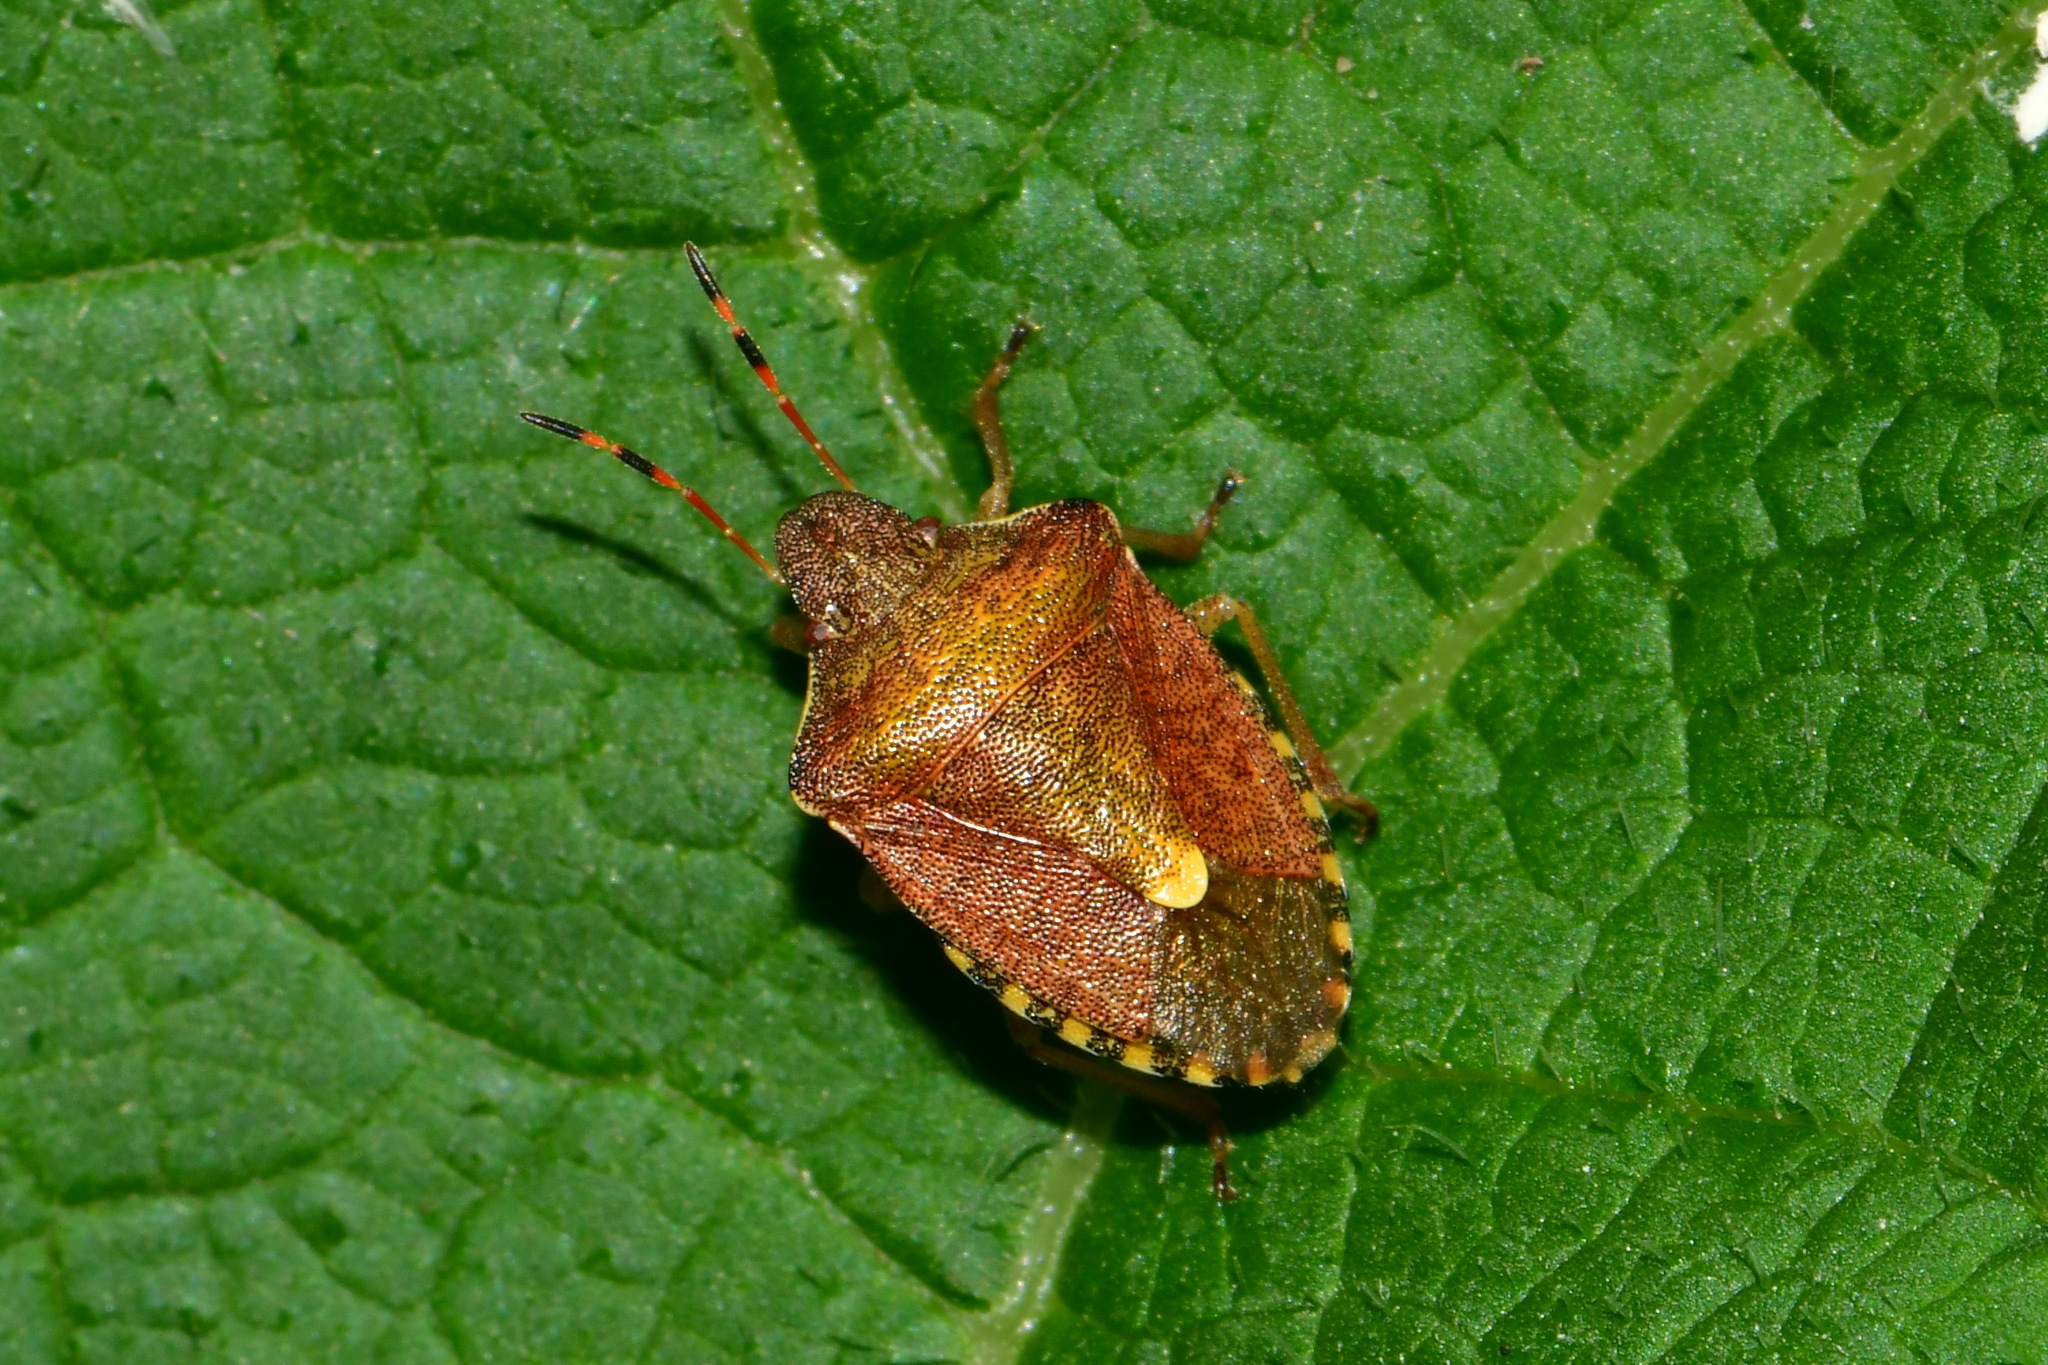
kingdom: Animalia
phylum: Arthropoda
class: Insecta
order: Hemiptera
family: Pentatomidae
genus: Holcostethus
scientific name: Holcostethus strictus
